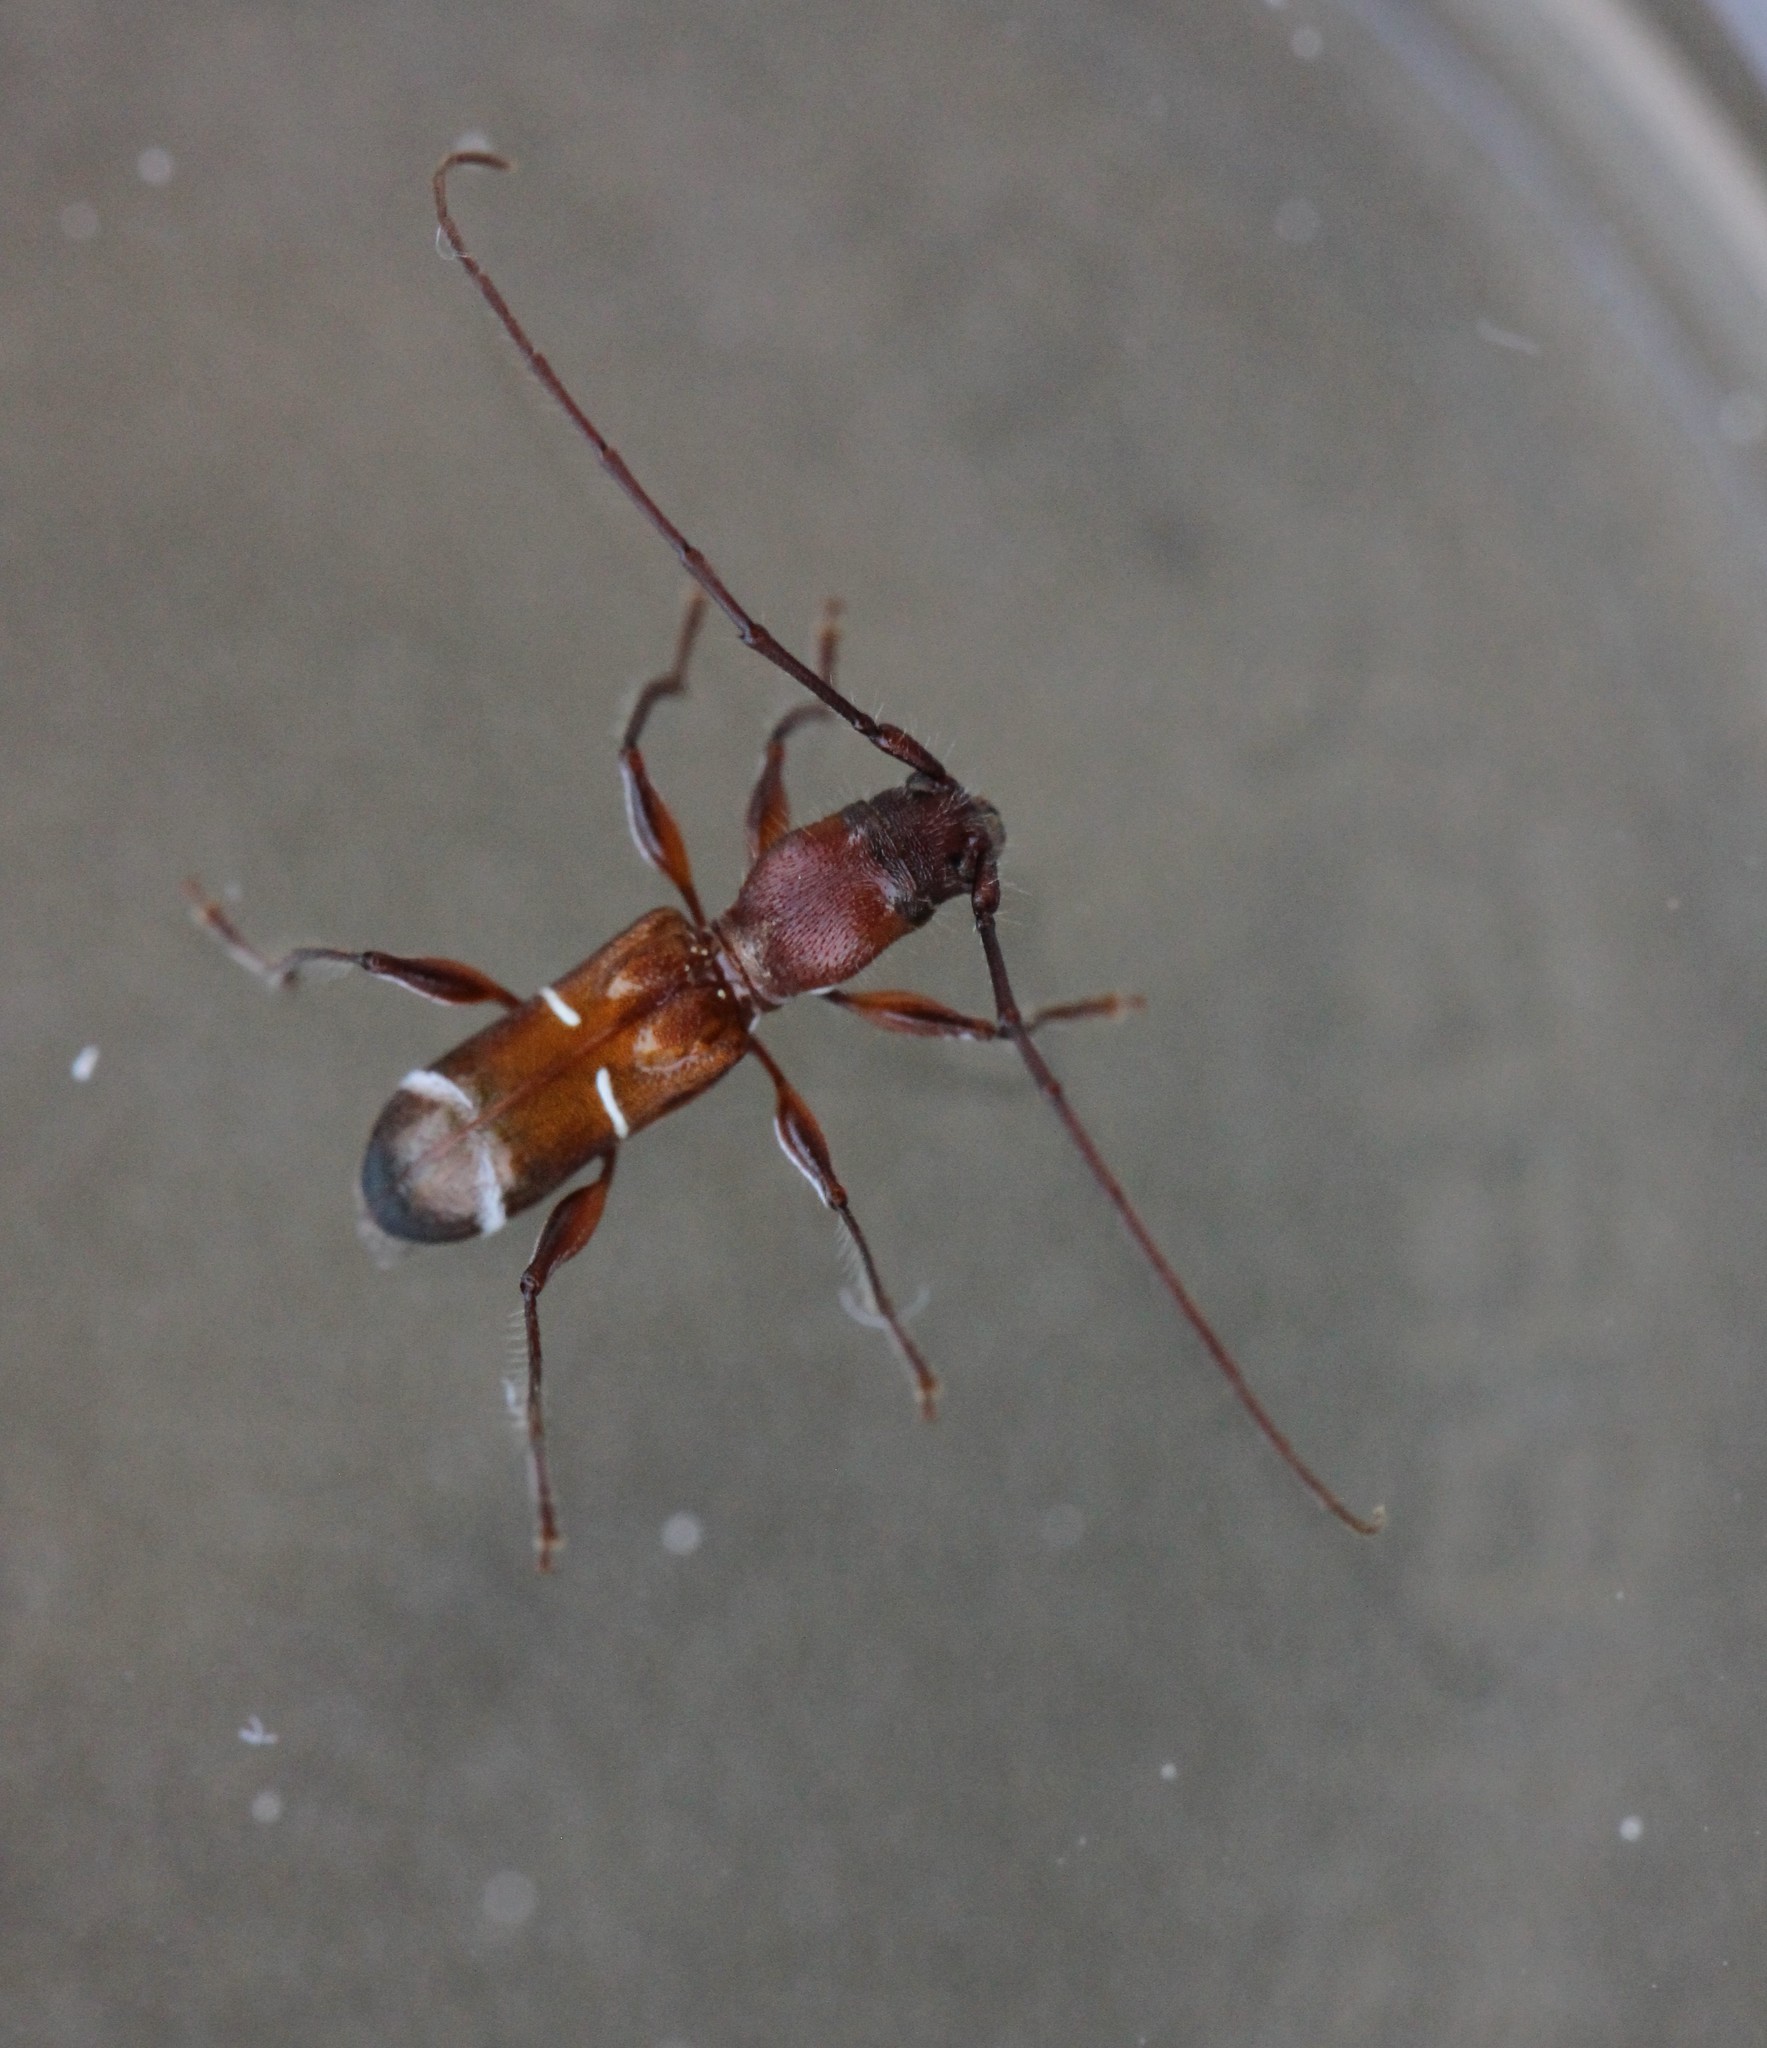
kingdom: Animalia
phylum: Arthropoda
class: Insecta
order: Coleoptera
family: Cerambycidae
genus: Euderces
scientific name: Euderces pini
